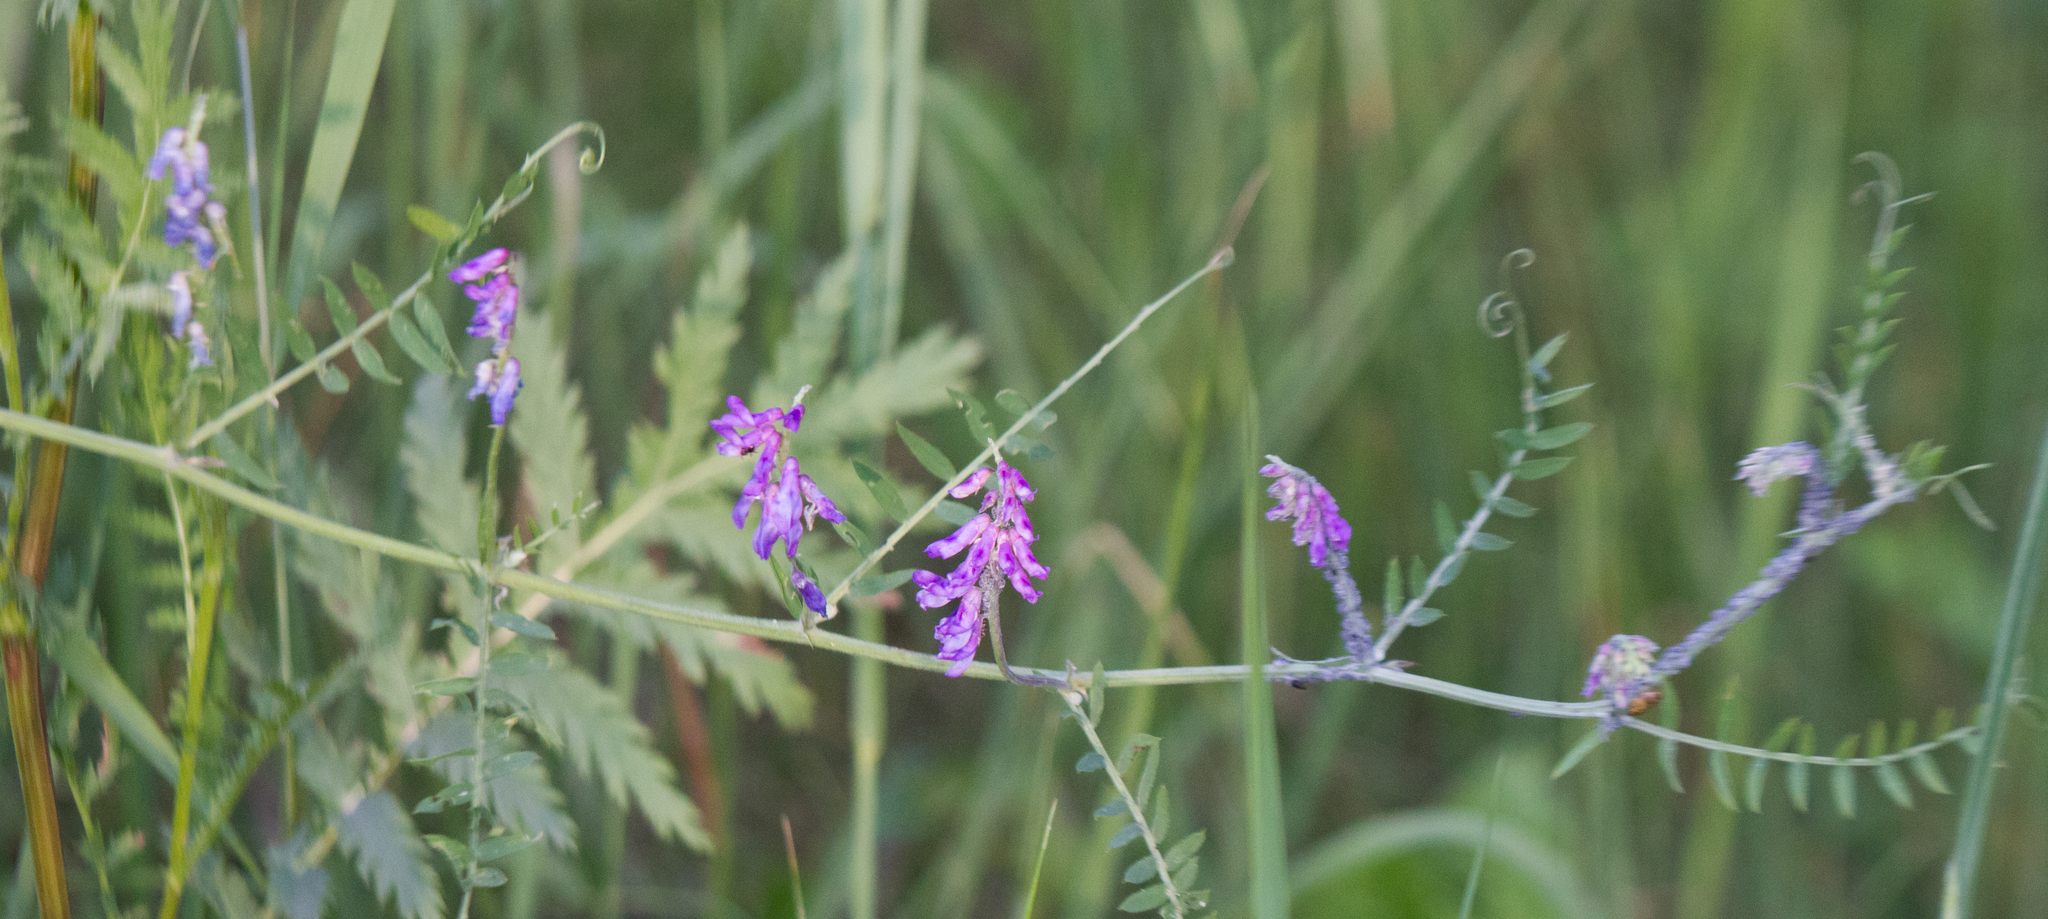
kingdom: Plantae
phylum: Tracheophyta
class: Magnoliopsida
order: Fabales
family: Fabaceae
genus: Vicia
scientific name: Vicia cracca
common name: Bird vetch
